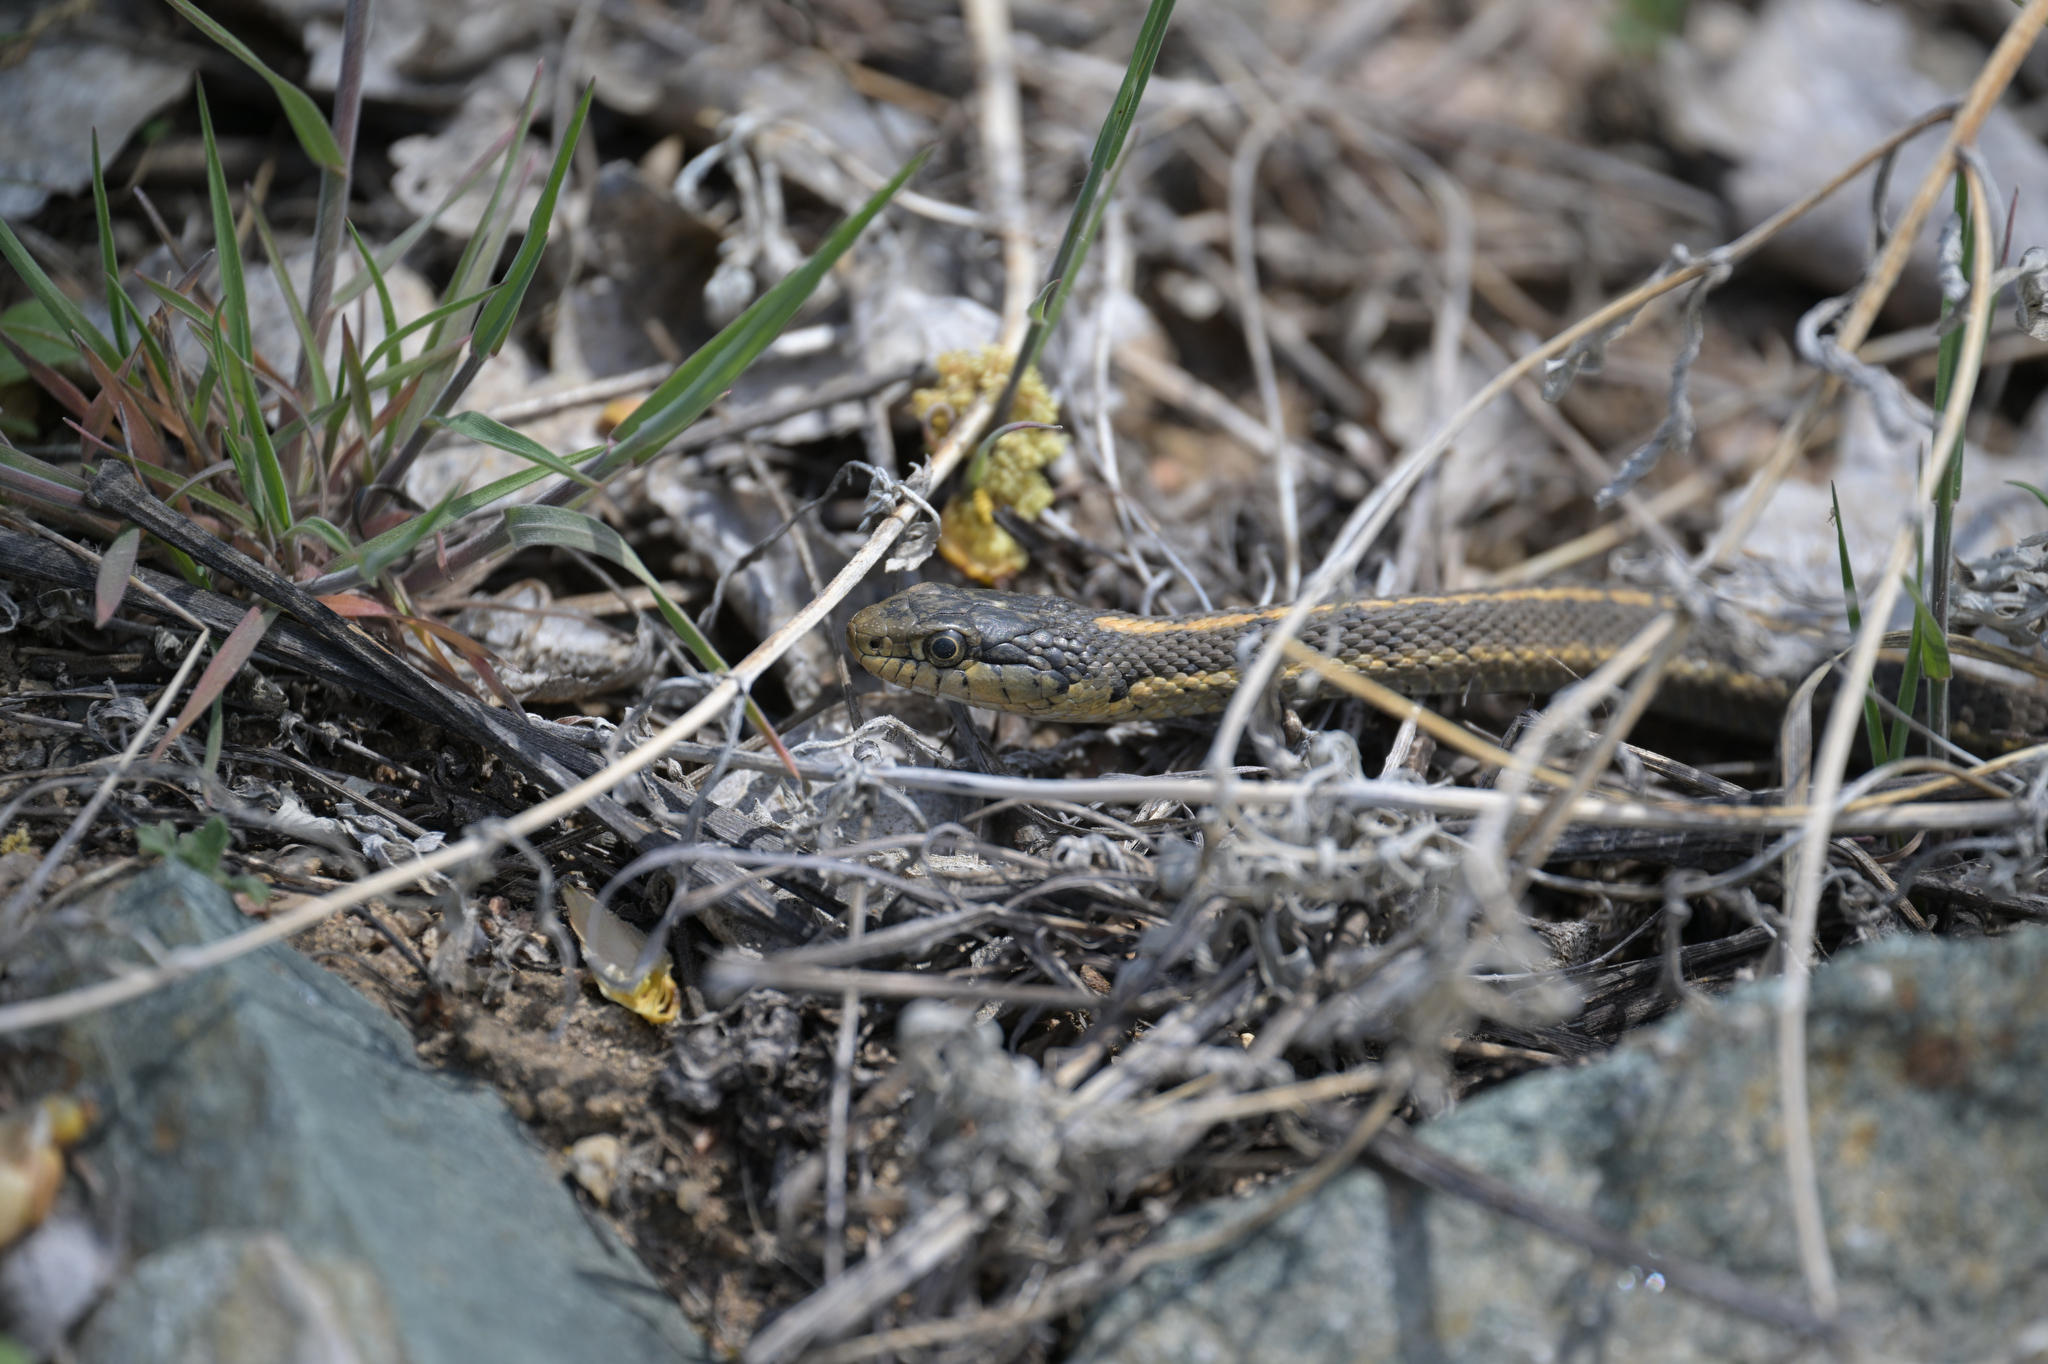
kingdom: Animalia
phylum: Chordata
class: Squamata
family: Colubridae
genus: Thamnophis
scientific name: Thamnophis elegans
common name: Western terrestrial garter snake
